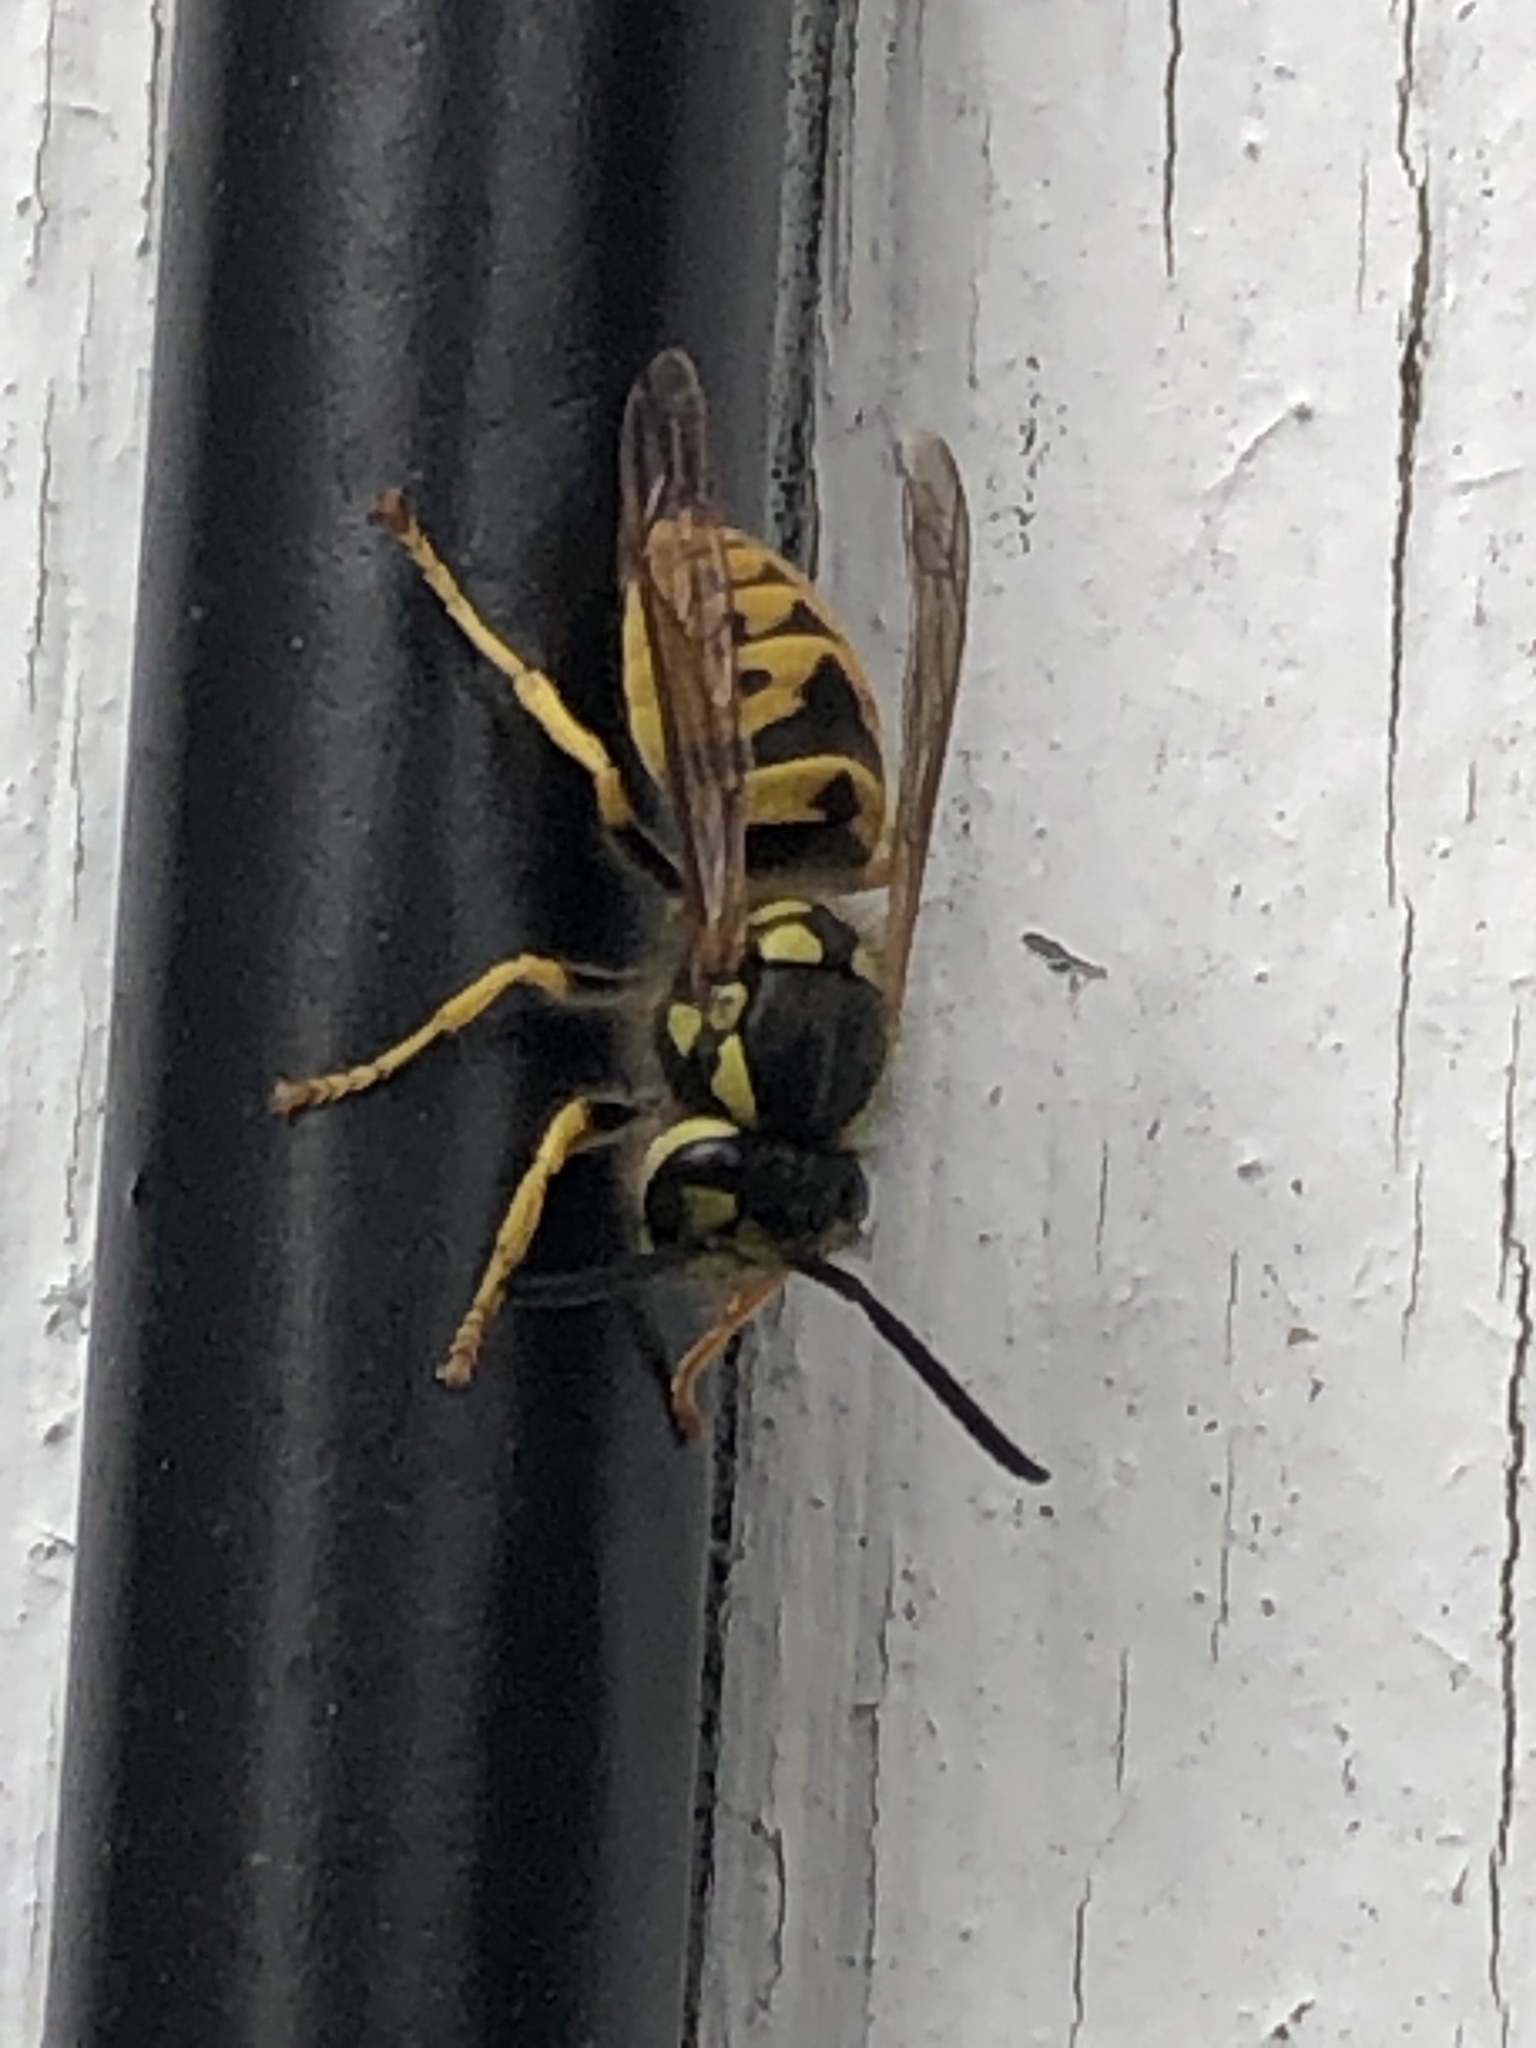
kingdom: Animalia
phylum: Arthropoda
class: Insecta
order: Hymenoptera
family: Vespidae
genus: Vespula
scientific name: Vespula germanica
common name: German wasp
